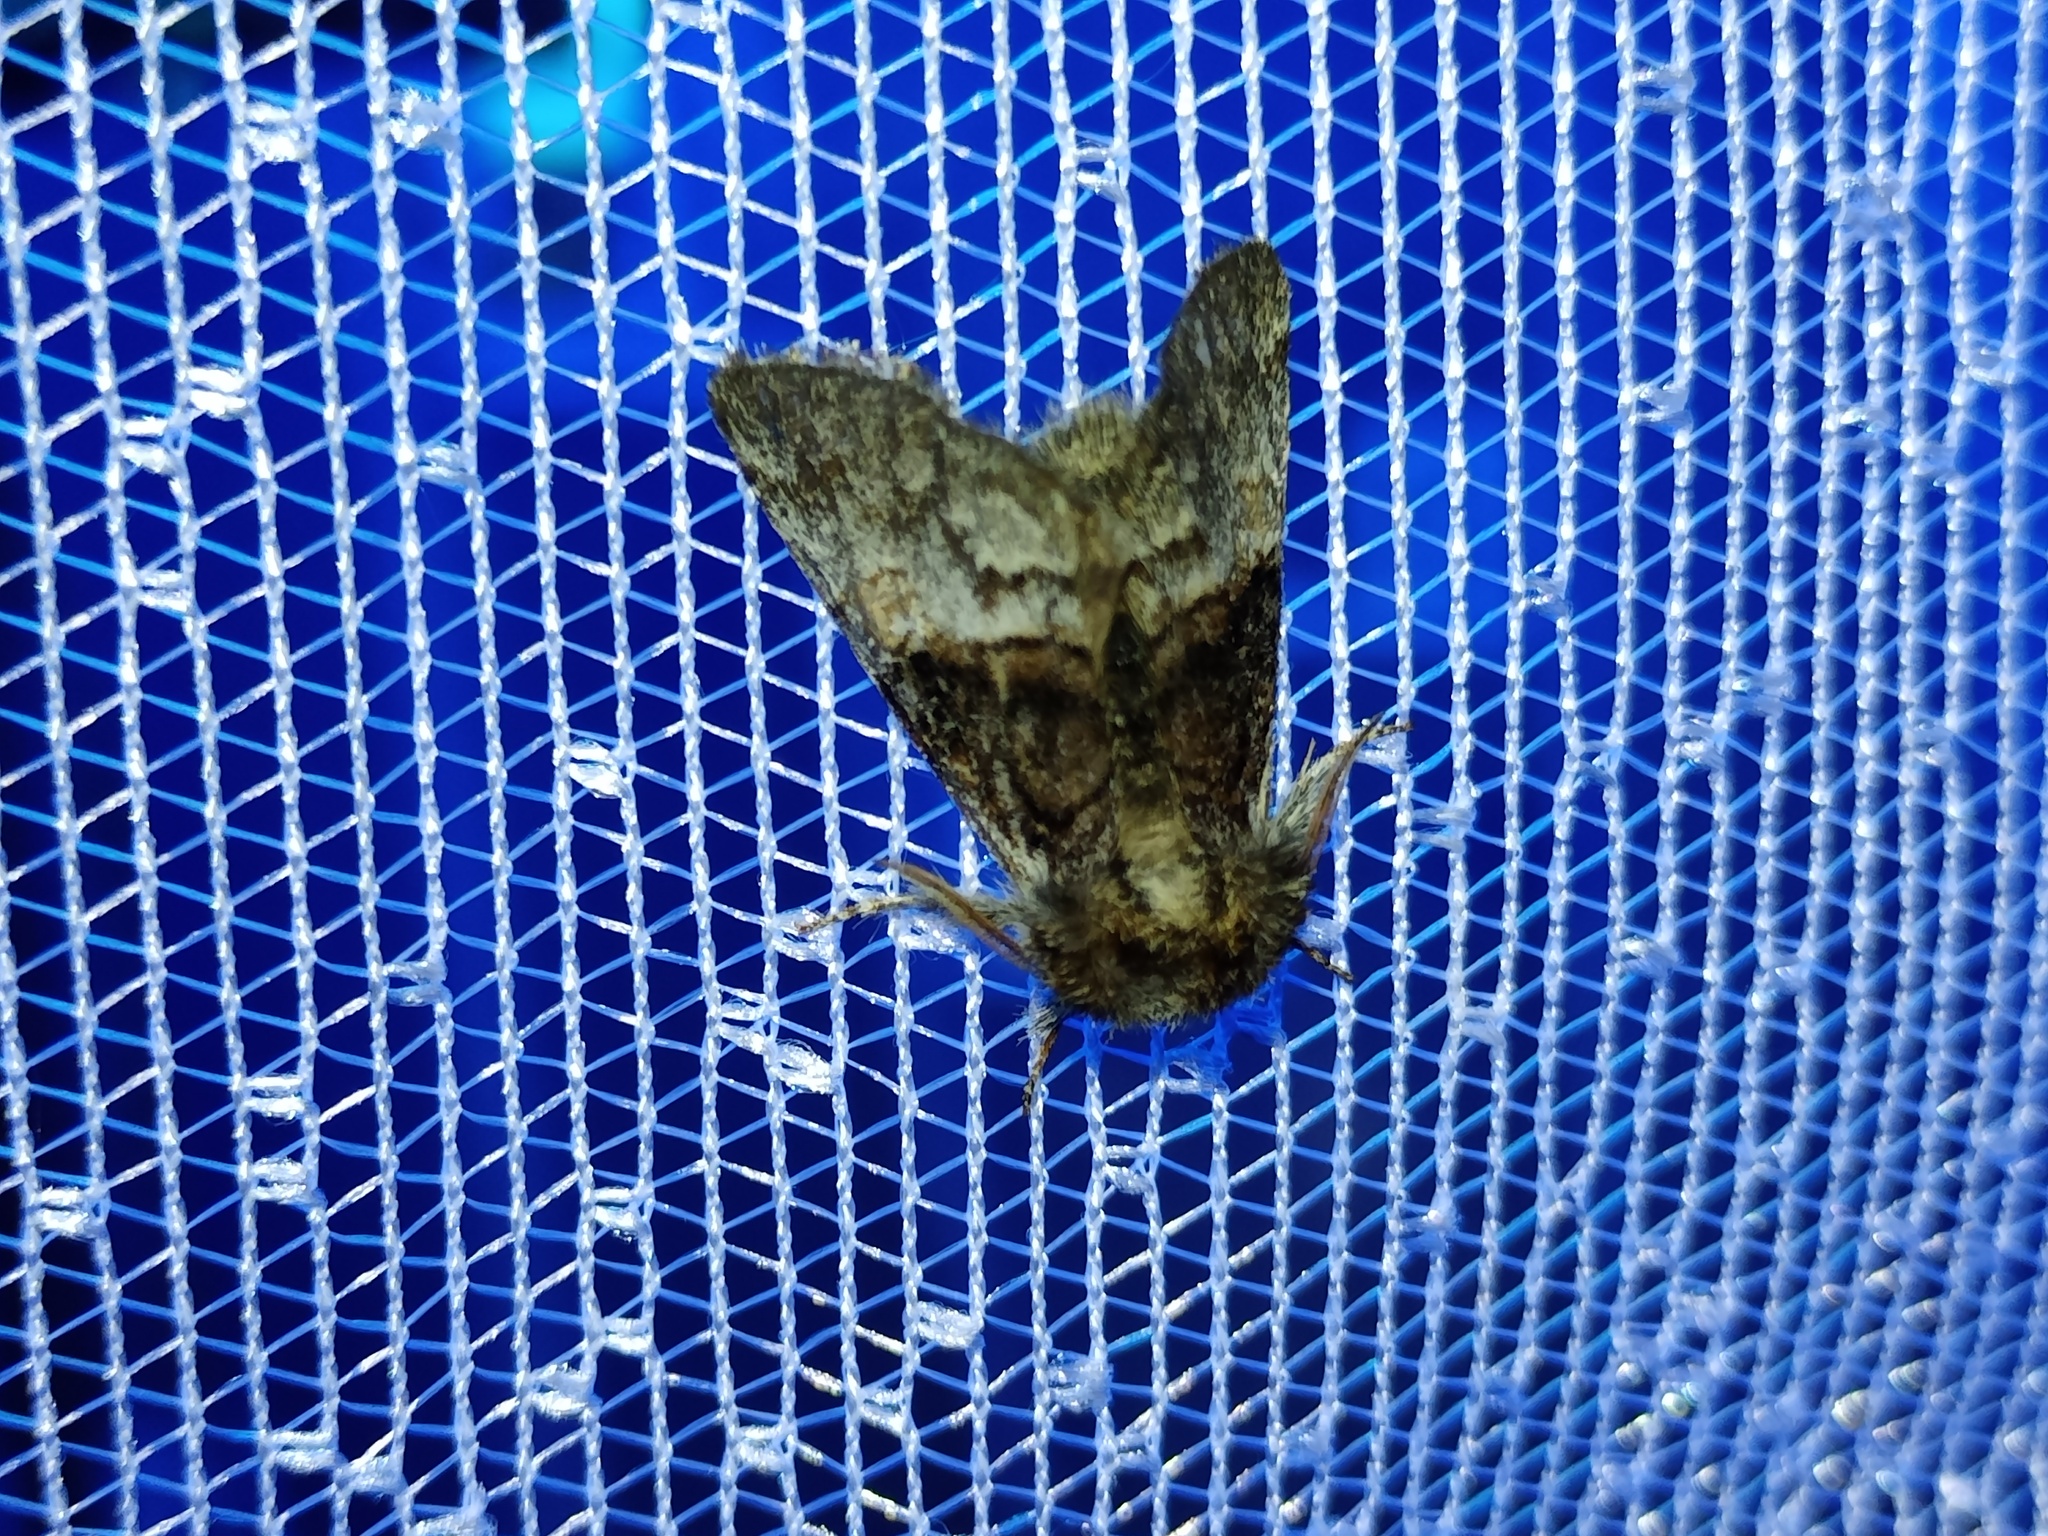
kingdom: Animalia
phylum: Arthropoda
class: Insecta
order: Lepidoptera
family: Noctuidae
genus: Colocasia
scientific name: Colocasia coryli
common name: Nut-tree tussock
